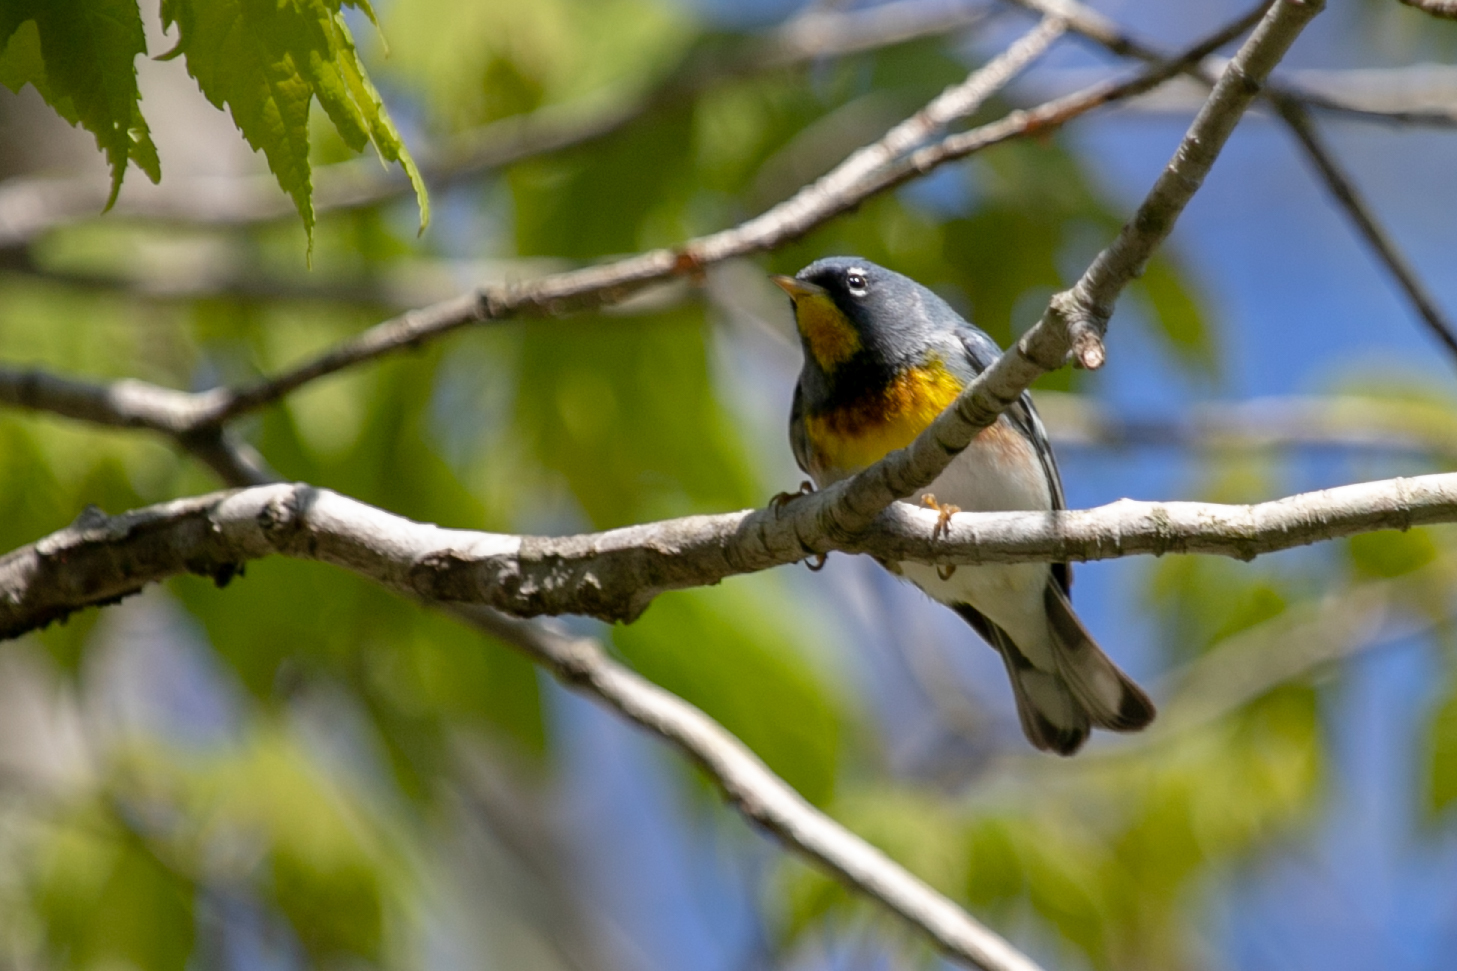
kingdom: Animalia
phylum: Chordata
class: Aves
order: Passeriformes
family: Parulidae
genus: Setophaga
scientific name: Setophaga americana
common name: Northern parula
